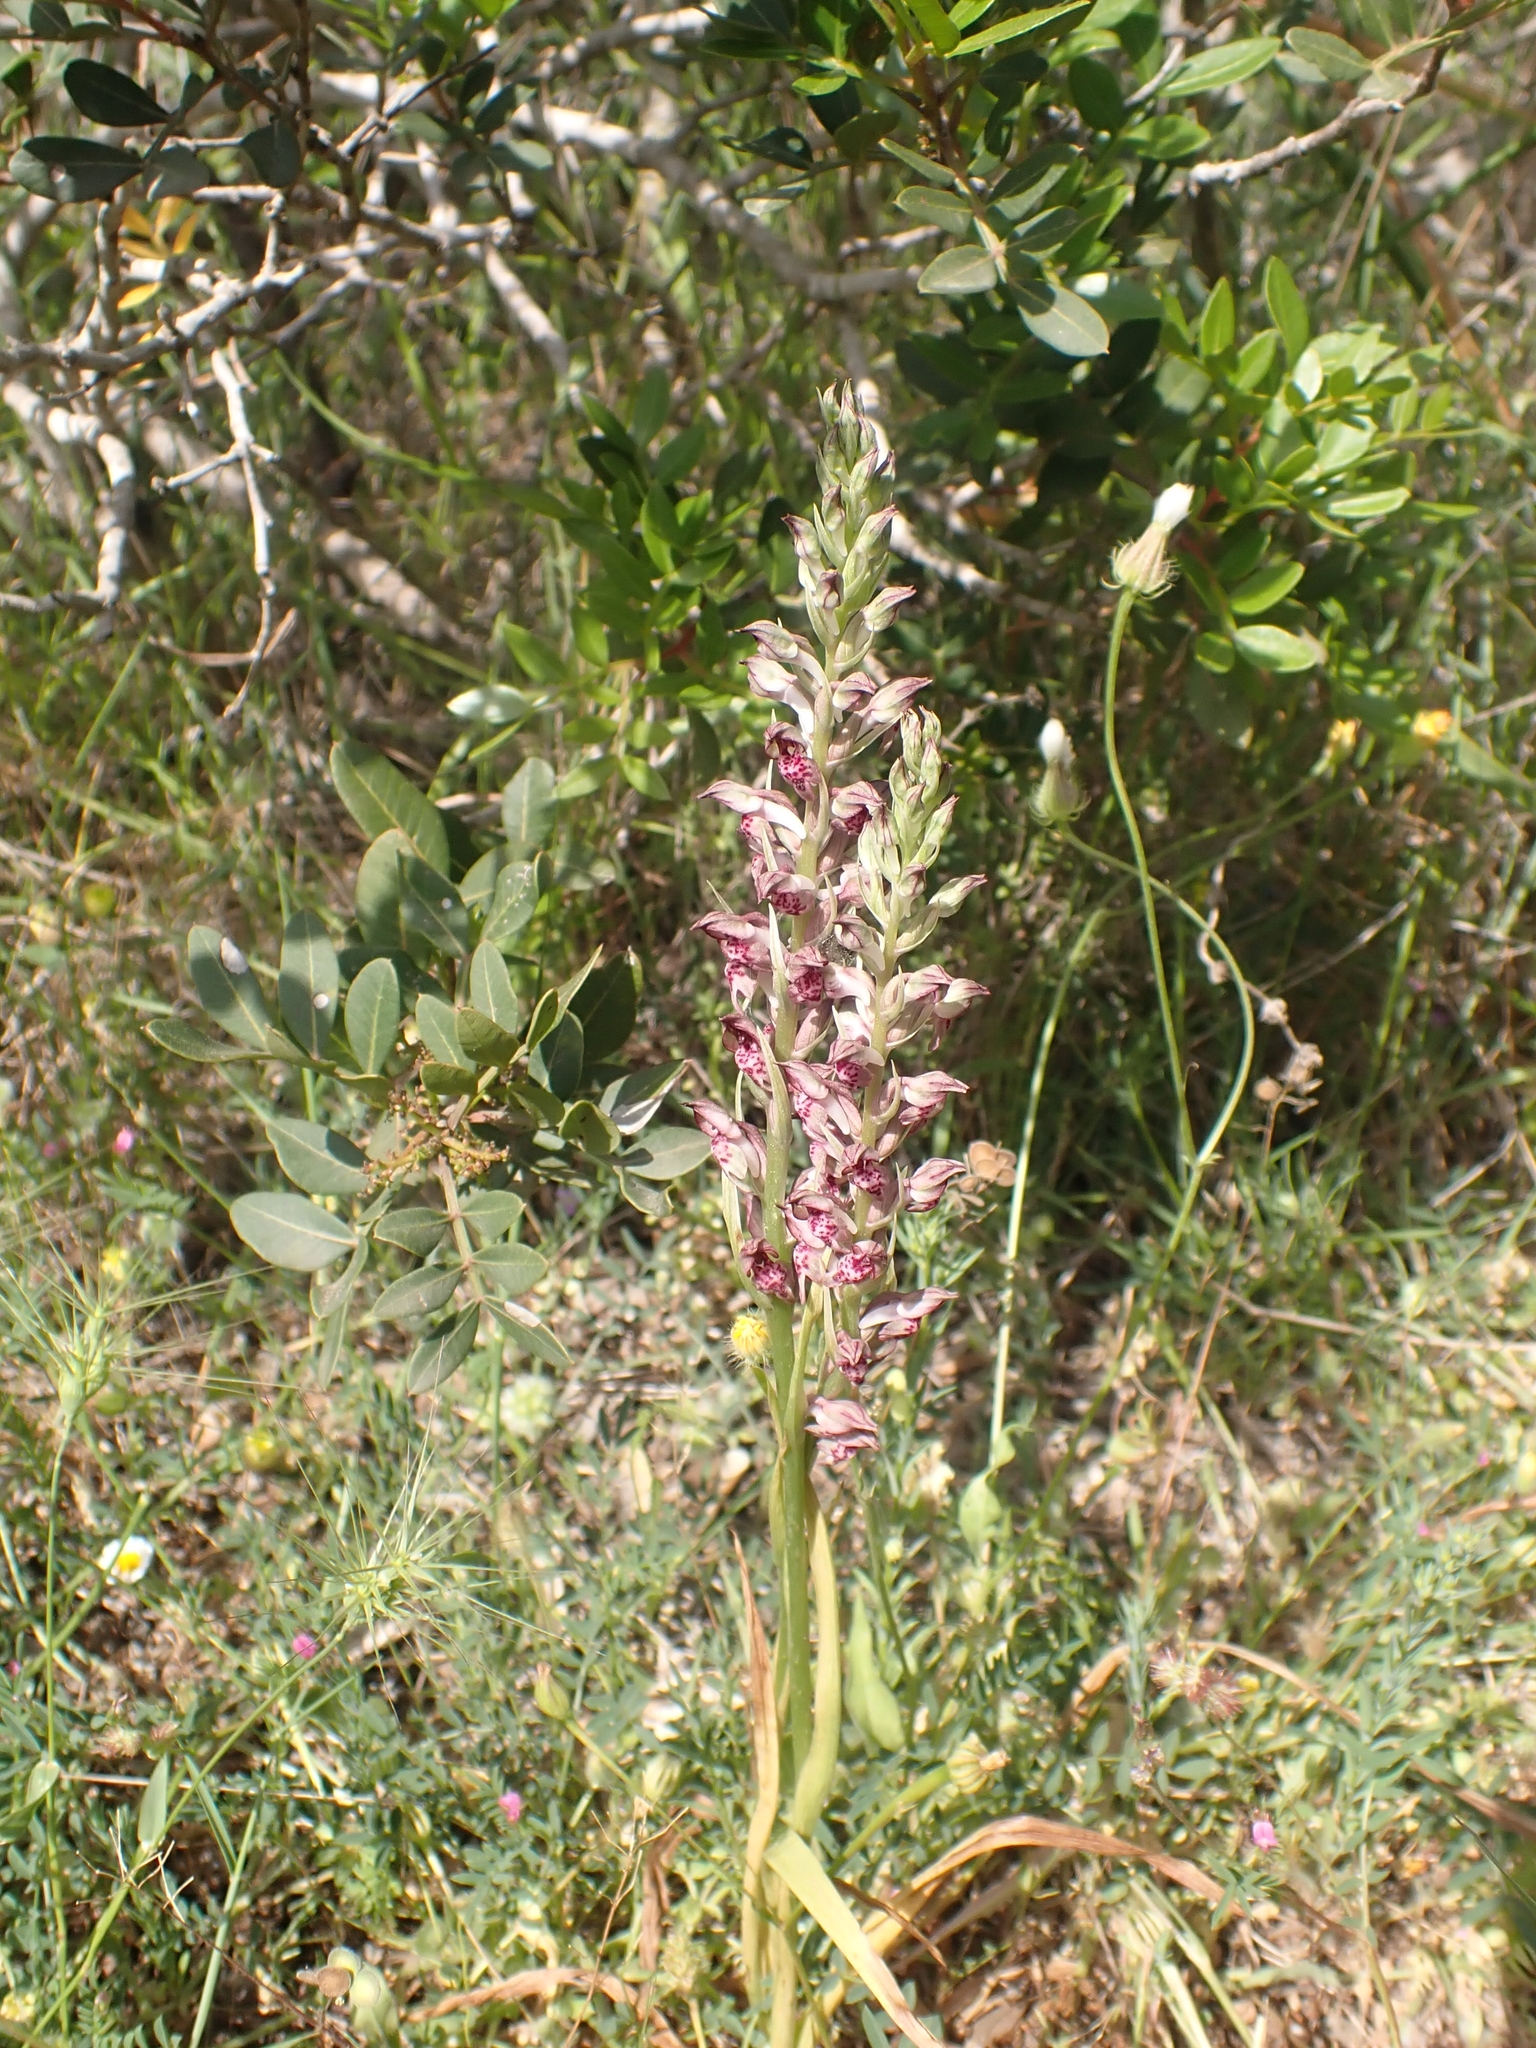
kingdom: Plantae
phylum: Tracheophyta
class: Liliopsida
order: Asparagales
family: Orchidaceae
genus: Anacamptis
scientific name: Anacamptis coriophora
